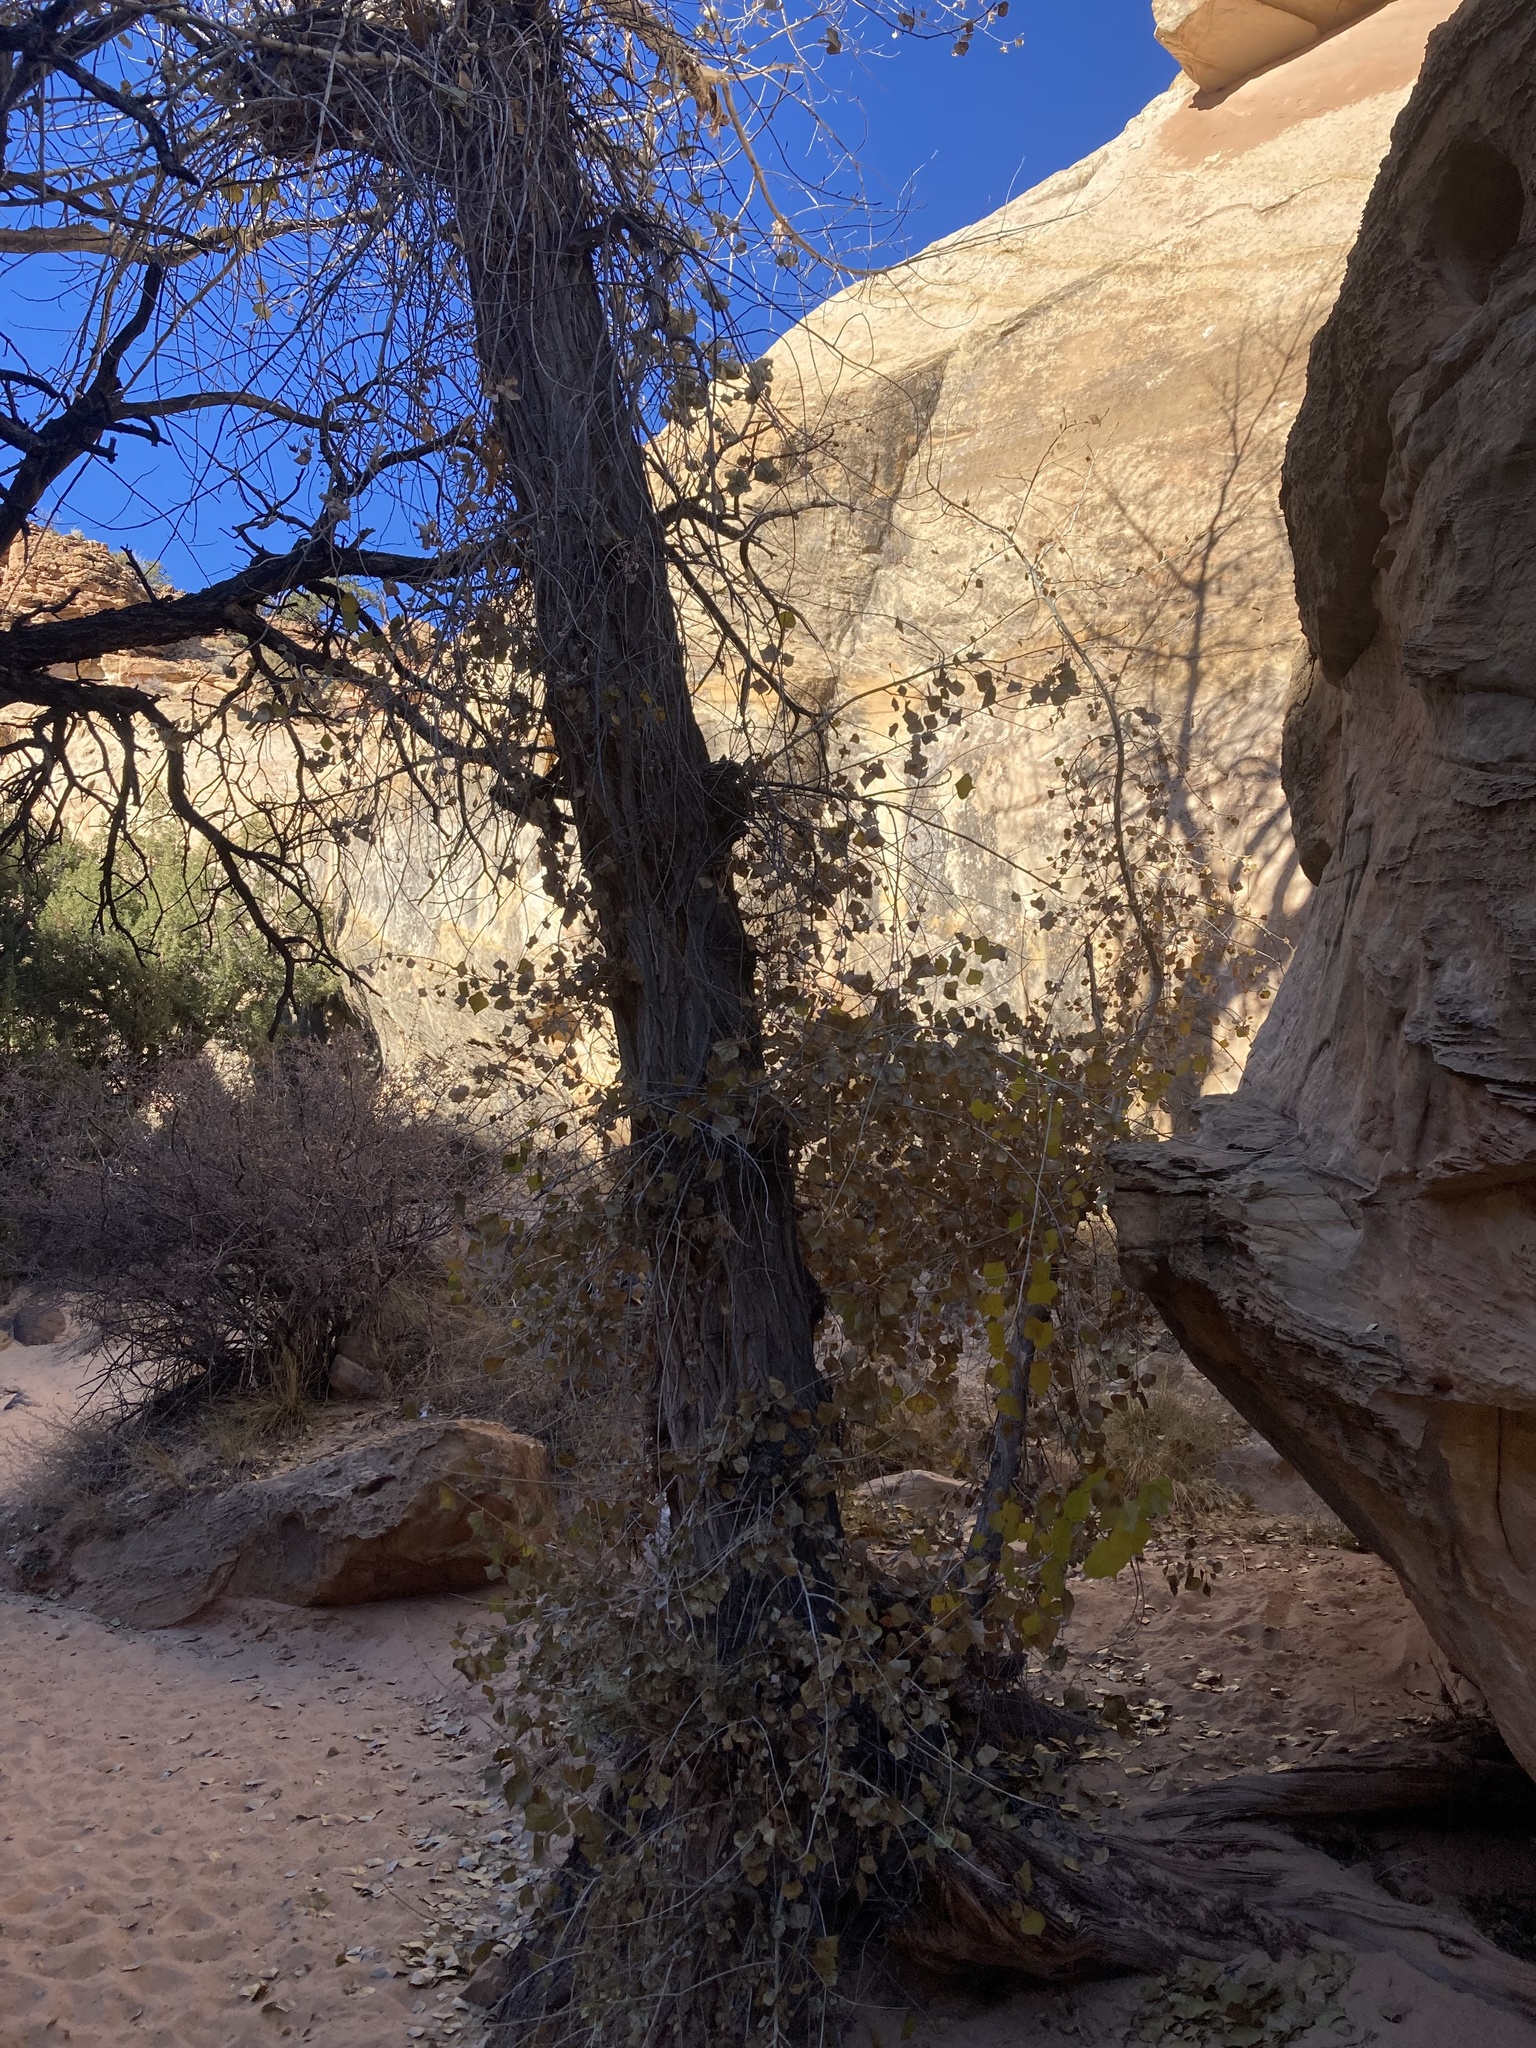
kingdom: Plantae
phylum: Tracheophyta
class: Magnoliopsida
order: Malpighiales
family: Salicaceae
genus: Populus
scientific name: Populus fremontii
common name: Fremont's cottonwood
